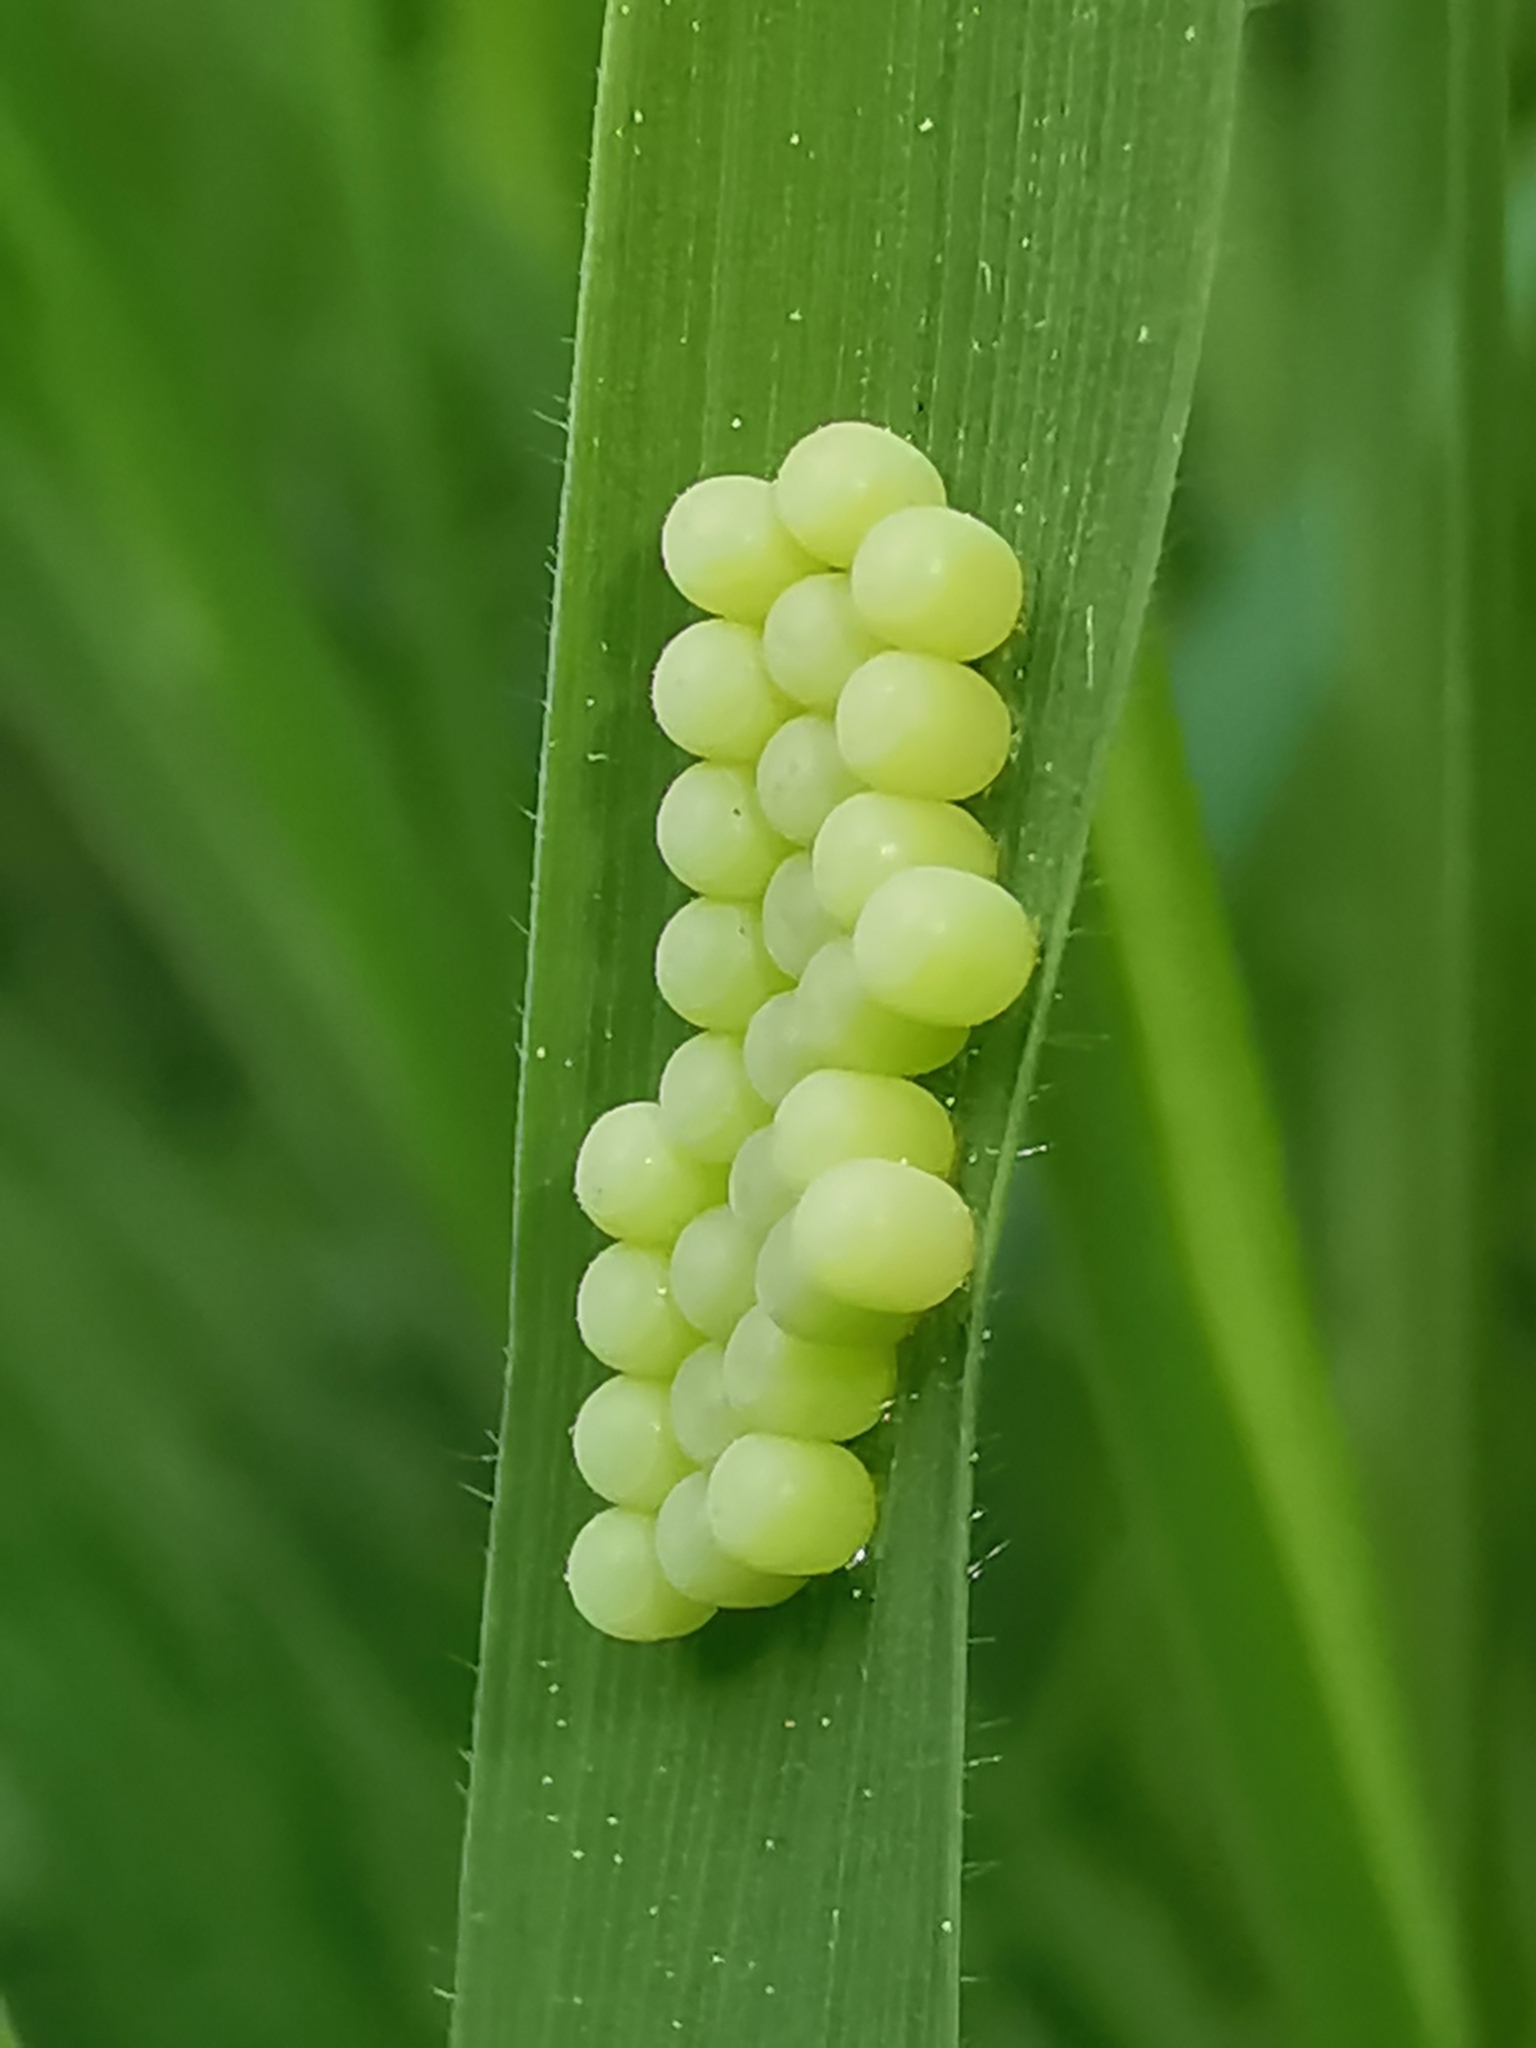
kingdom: Animalia
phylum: Arthropoda
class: Insecta
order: Hemiptera
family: Pentatomidae
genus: Palomena
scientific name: Palomena prasina
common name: Green shieldbug
